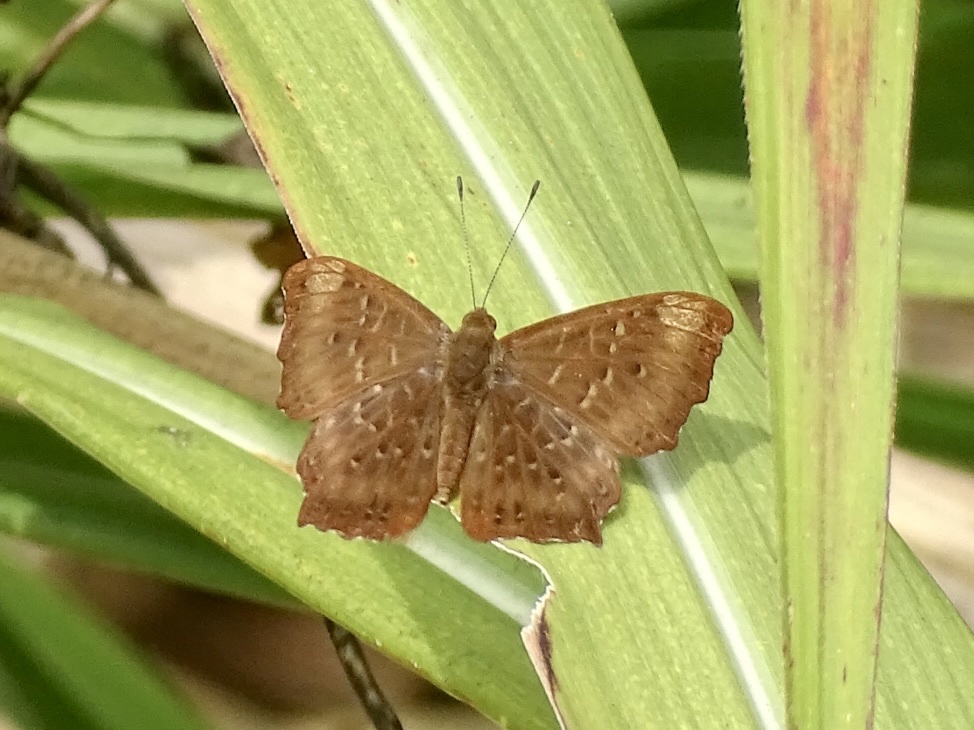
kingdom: Animalia
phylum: Arthropoda
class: Insecta
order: Lepidoptera
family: Riodinidae
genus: Zemeros
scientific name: Zemeros flegyas
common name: Punchinello
